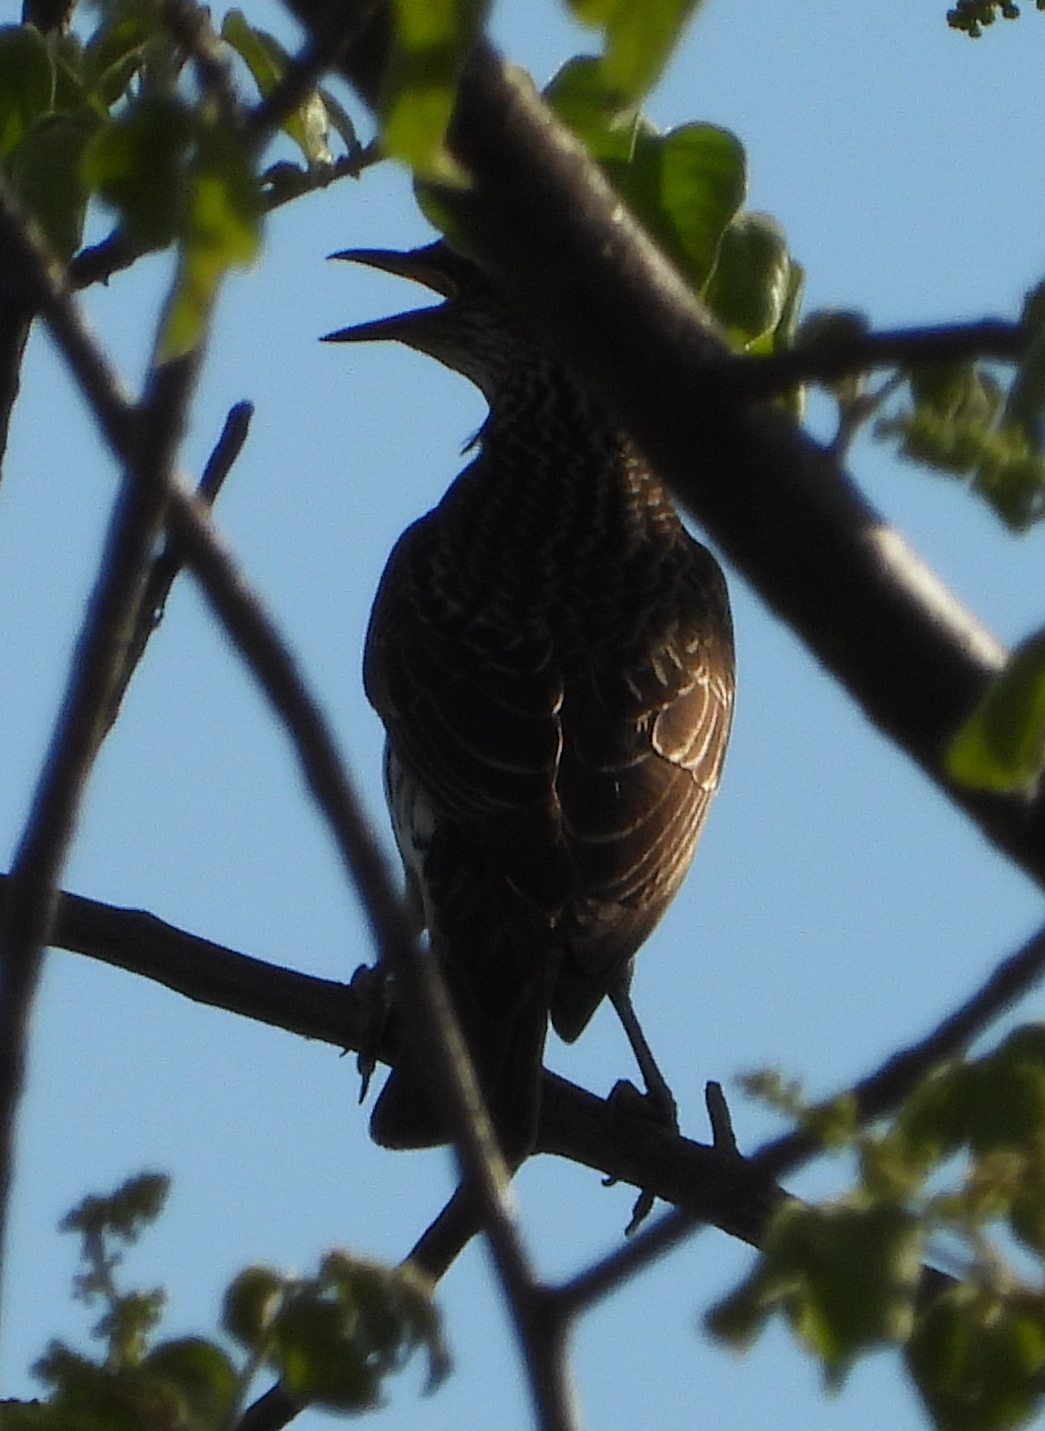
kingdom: Animalia
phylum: Chordata
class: Aves
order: Passeriformes
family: Sturnidae
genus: Cinnyricinclus
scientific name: Cinnyricinclus leucogaster
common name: Violet-backed starling
